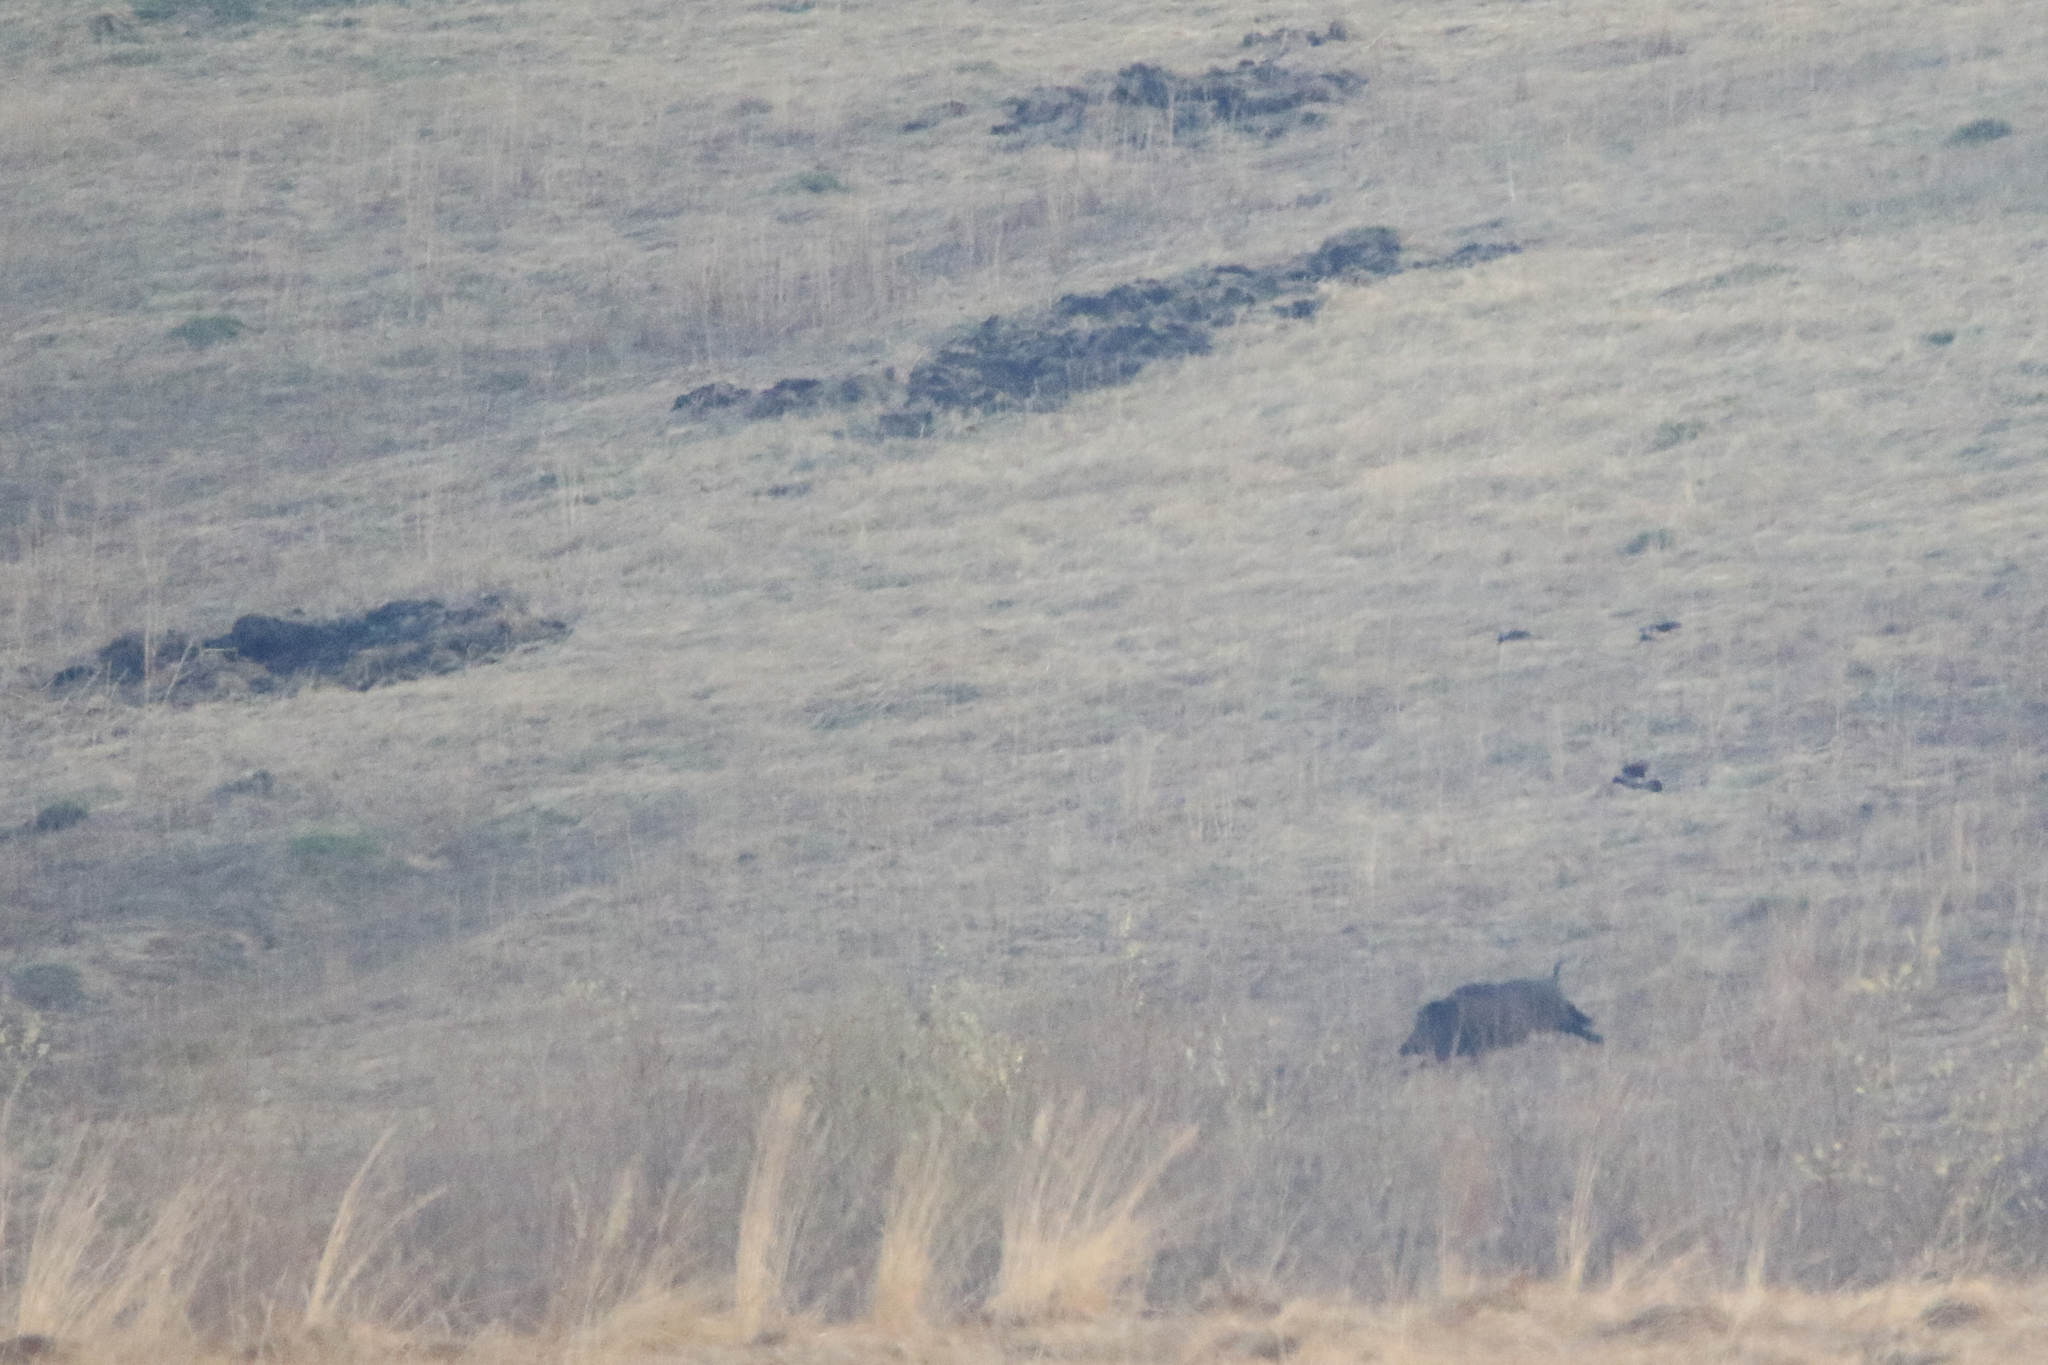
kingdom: Animalia
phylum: Chordata
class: Mammalia
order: Artiodactyla
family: Suidae
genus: Sus
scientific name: Sus scrofa
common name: Wild boar
